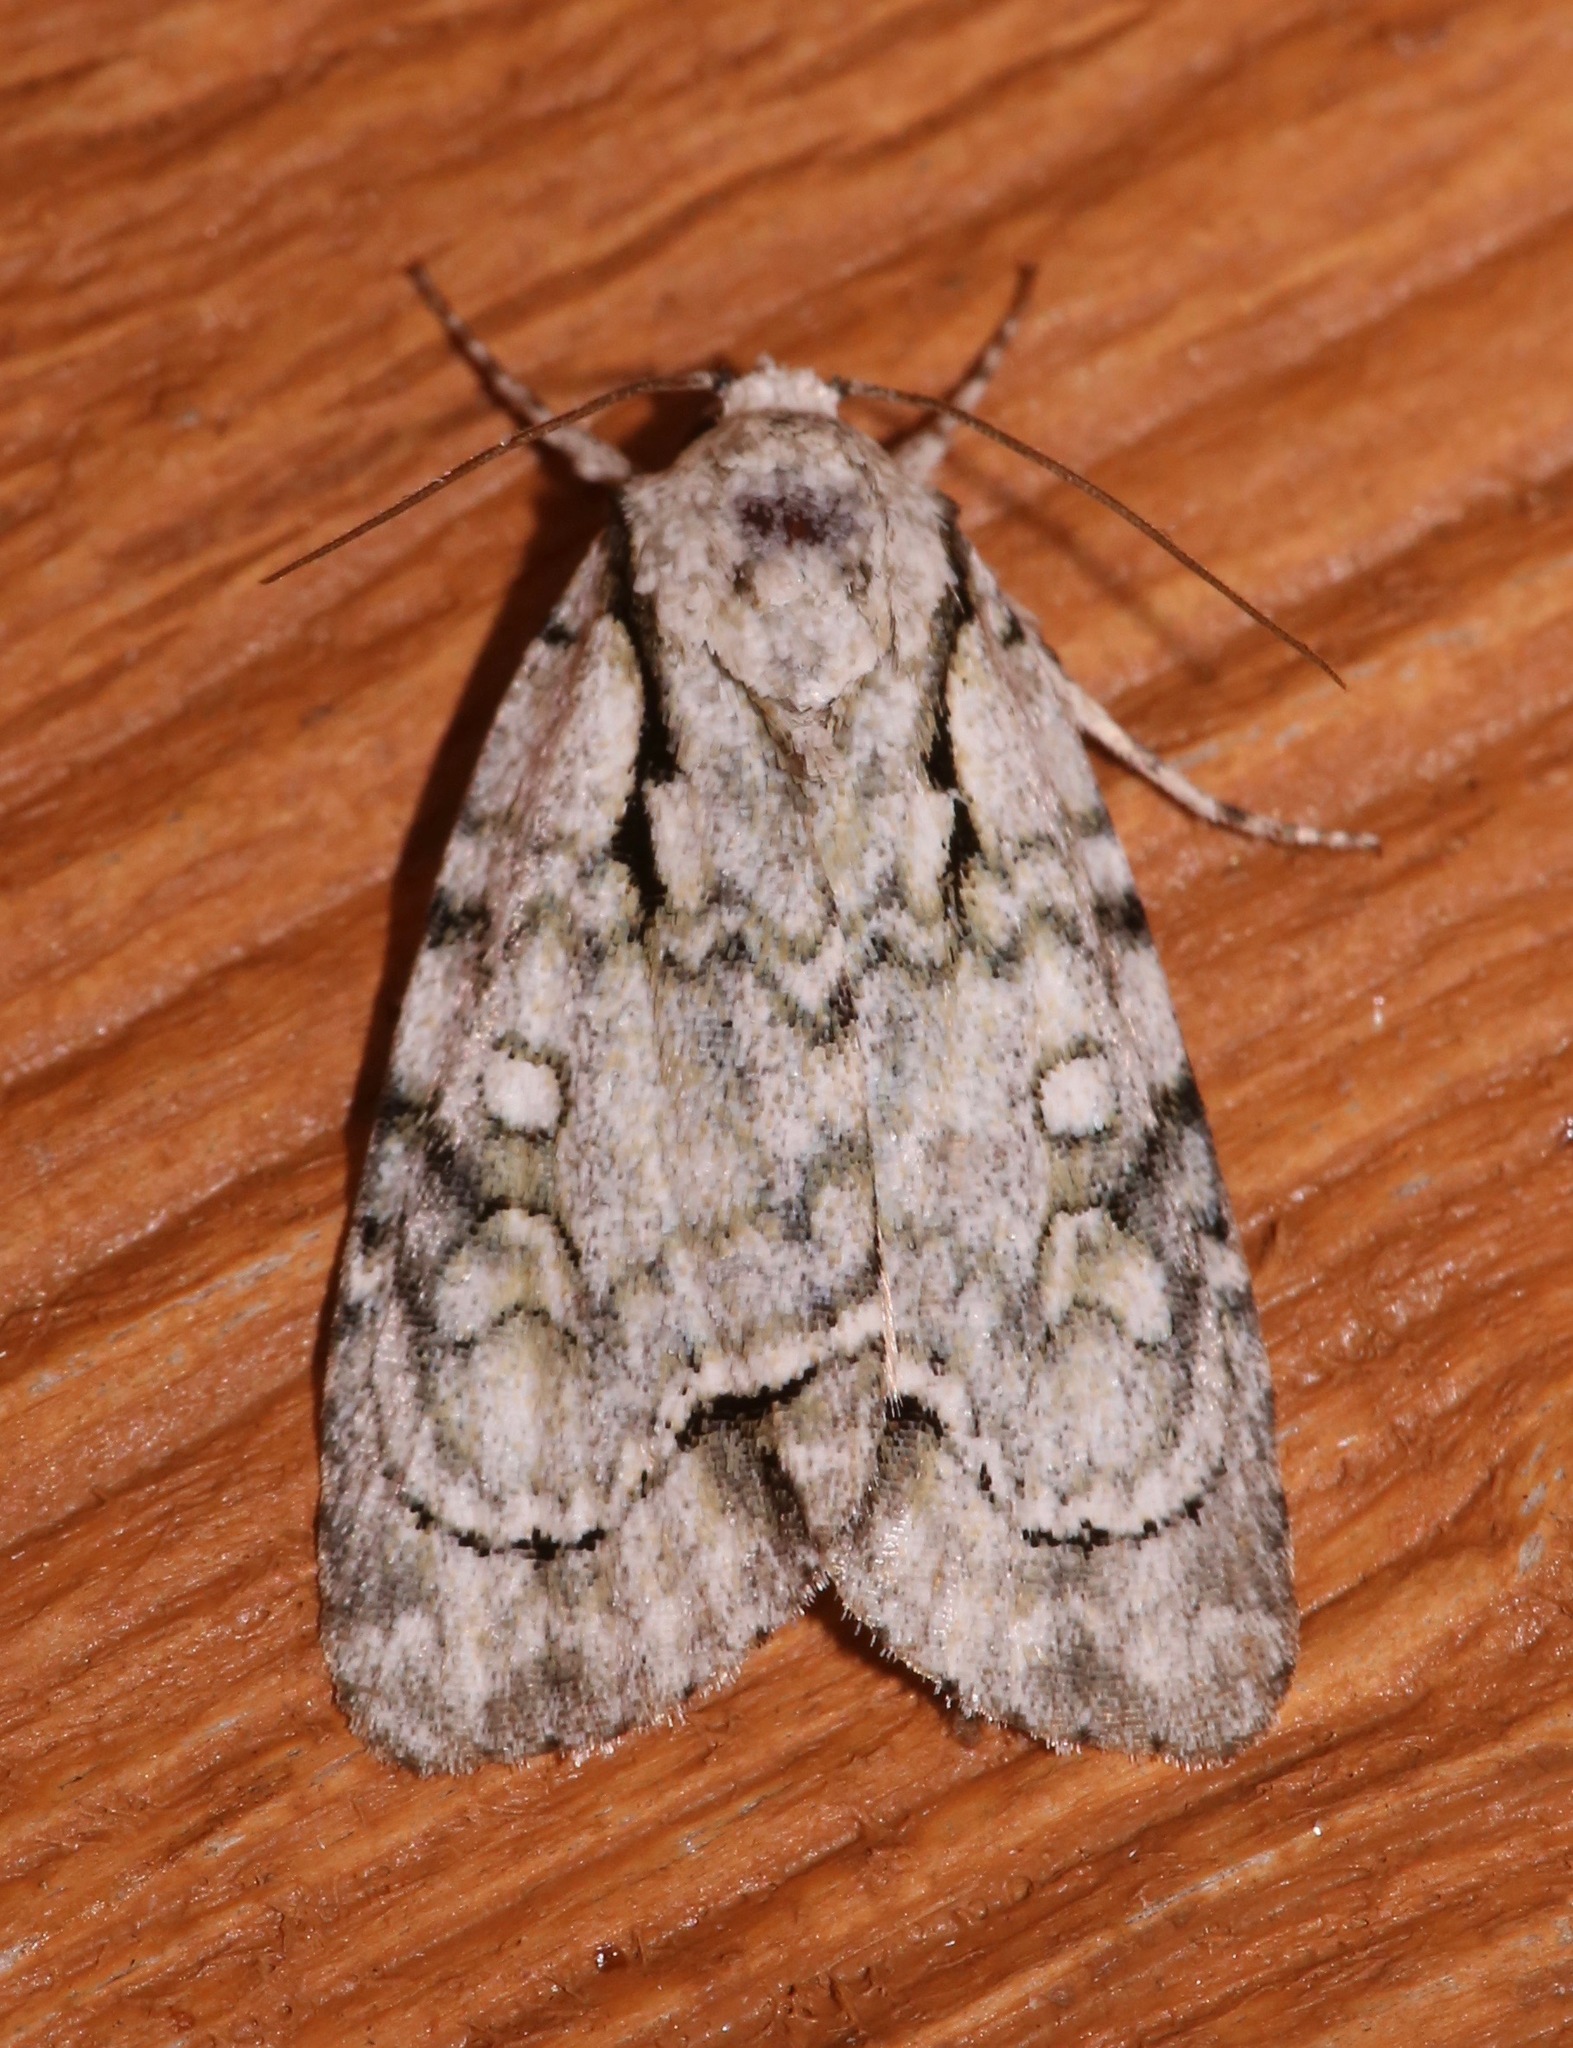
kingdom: Animalia
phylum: Arthropoda
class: Insecta
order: Lepidoptera
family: Noctuidae
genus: Acronicta
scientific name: Acronicta vinnula
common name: Delightful dagger
